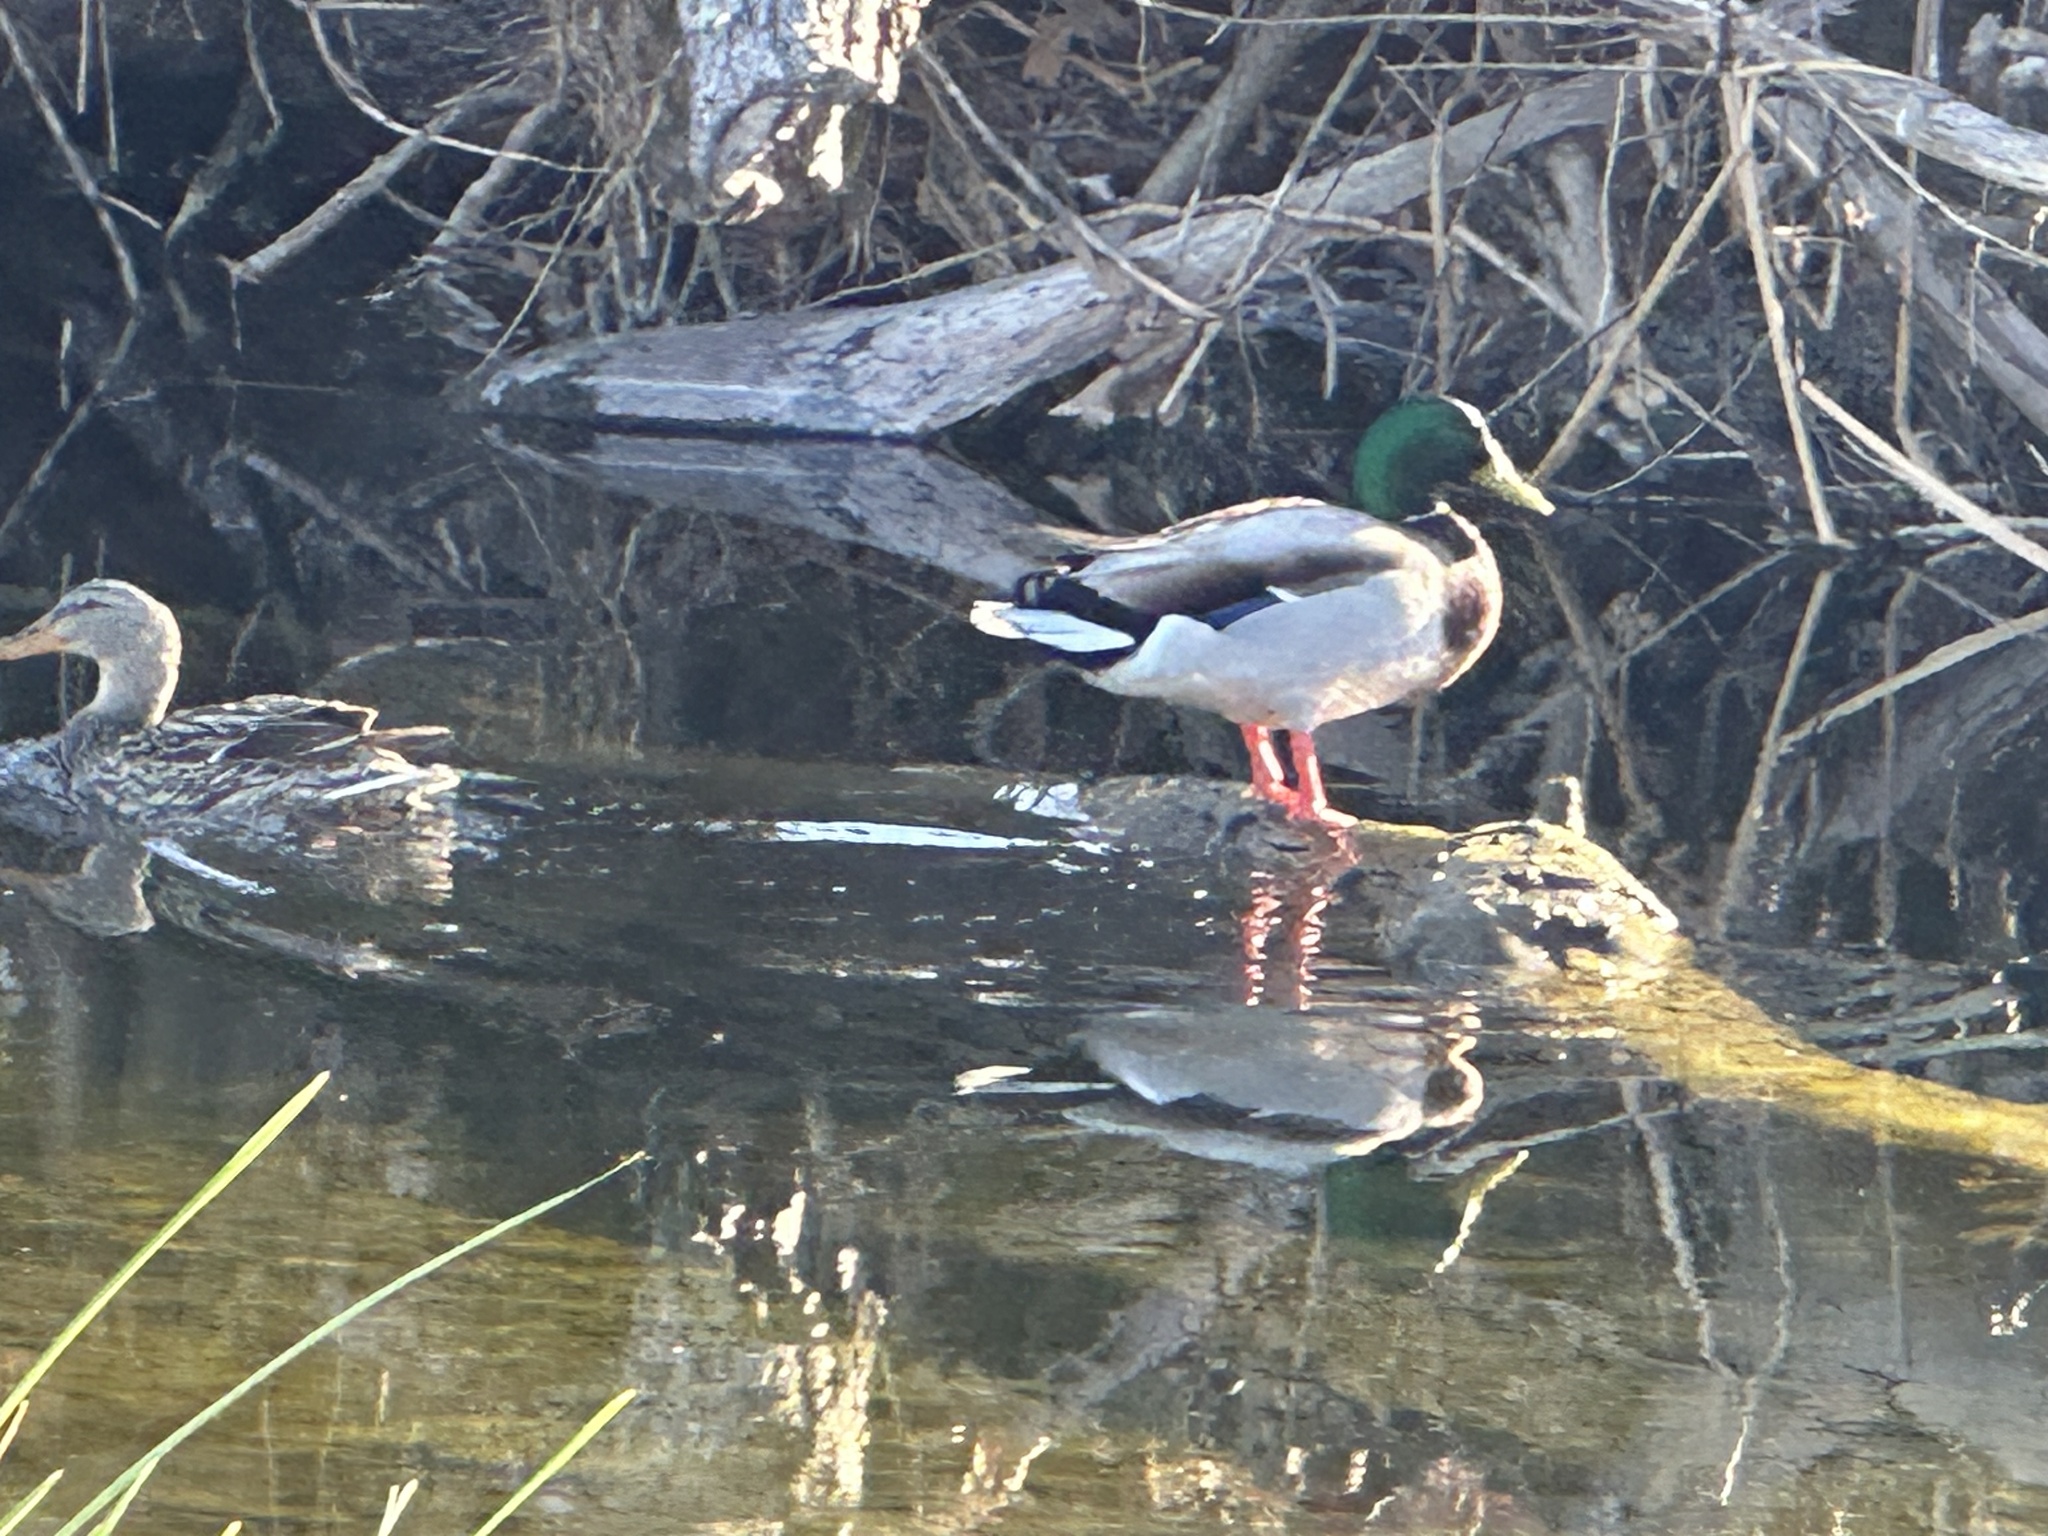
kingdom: Animalia
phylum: Chordata
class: Aves
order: Anseriformes
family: Anatidae
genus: Anas
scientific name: Anas platyrhynchos
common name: Mallard
